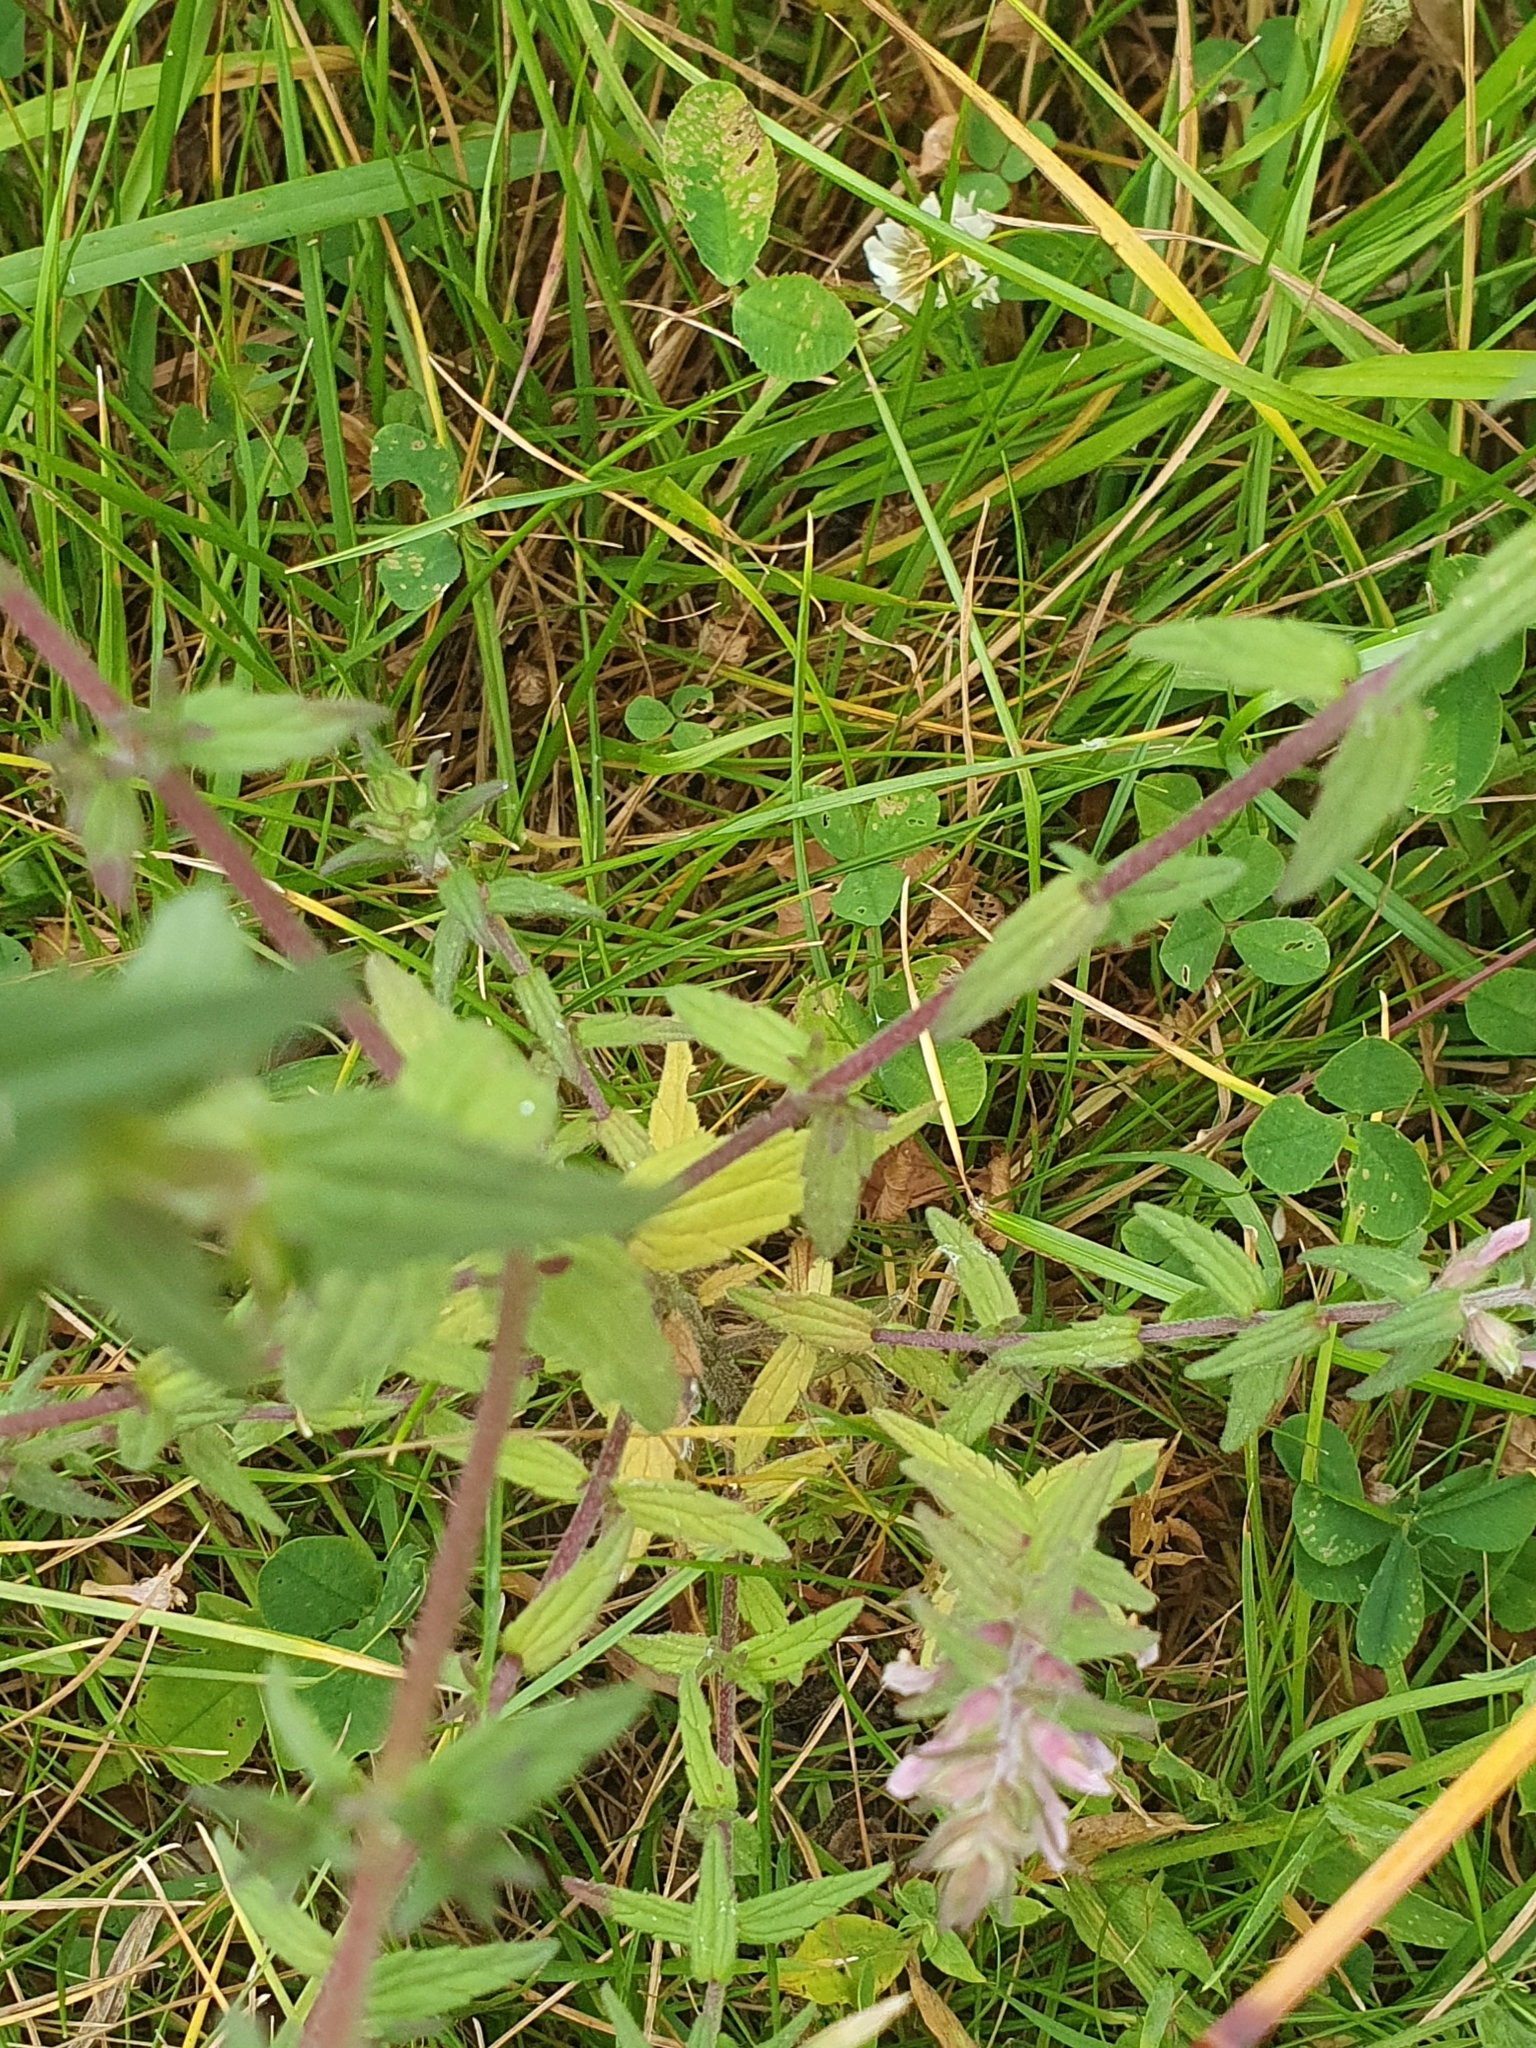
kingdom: Plantae
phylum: Tracheophyta
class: Magnoliopsida
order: Lamiales
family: Orobanchaceae
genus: Odontites
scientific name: Odontites vernus
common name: Red bartsia
